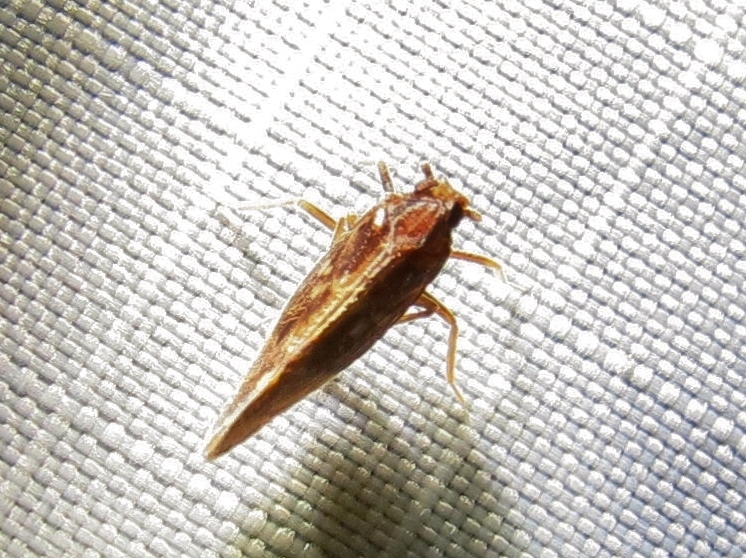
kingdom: Animalia
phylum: Arthropoda
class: Insecta
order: Hemiptera
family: Cixiidae
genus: Pintalia
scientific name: Pintalia vibex
